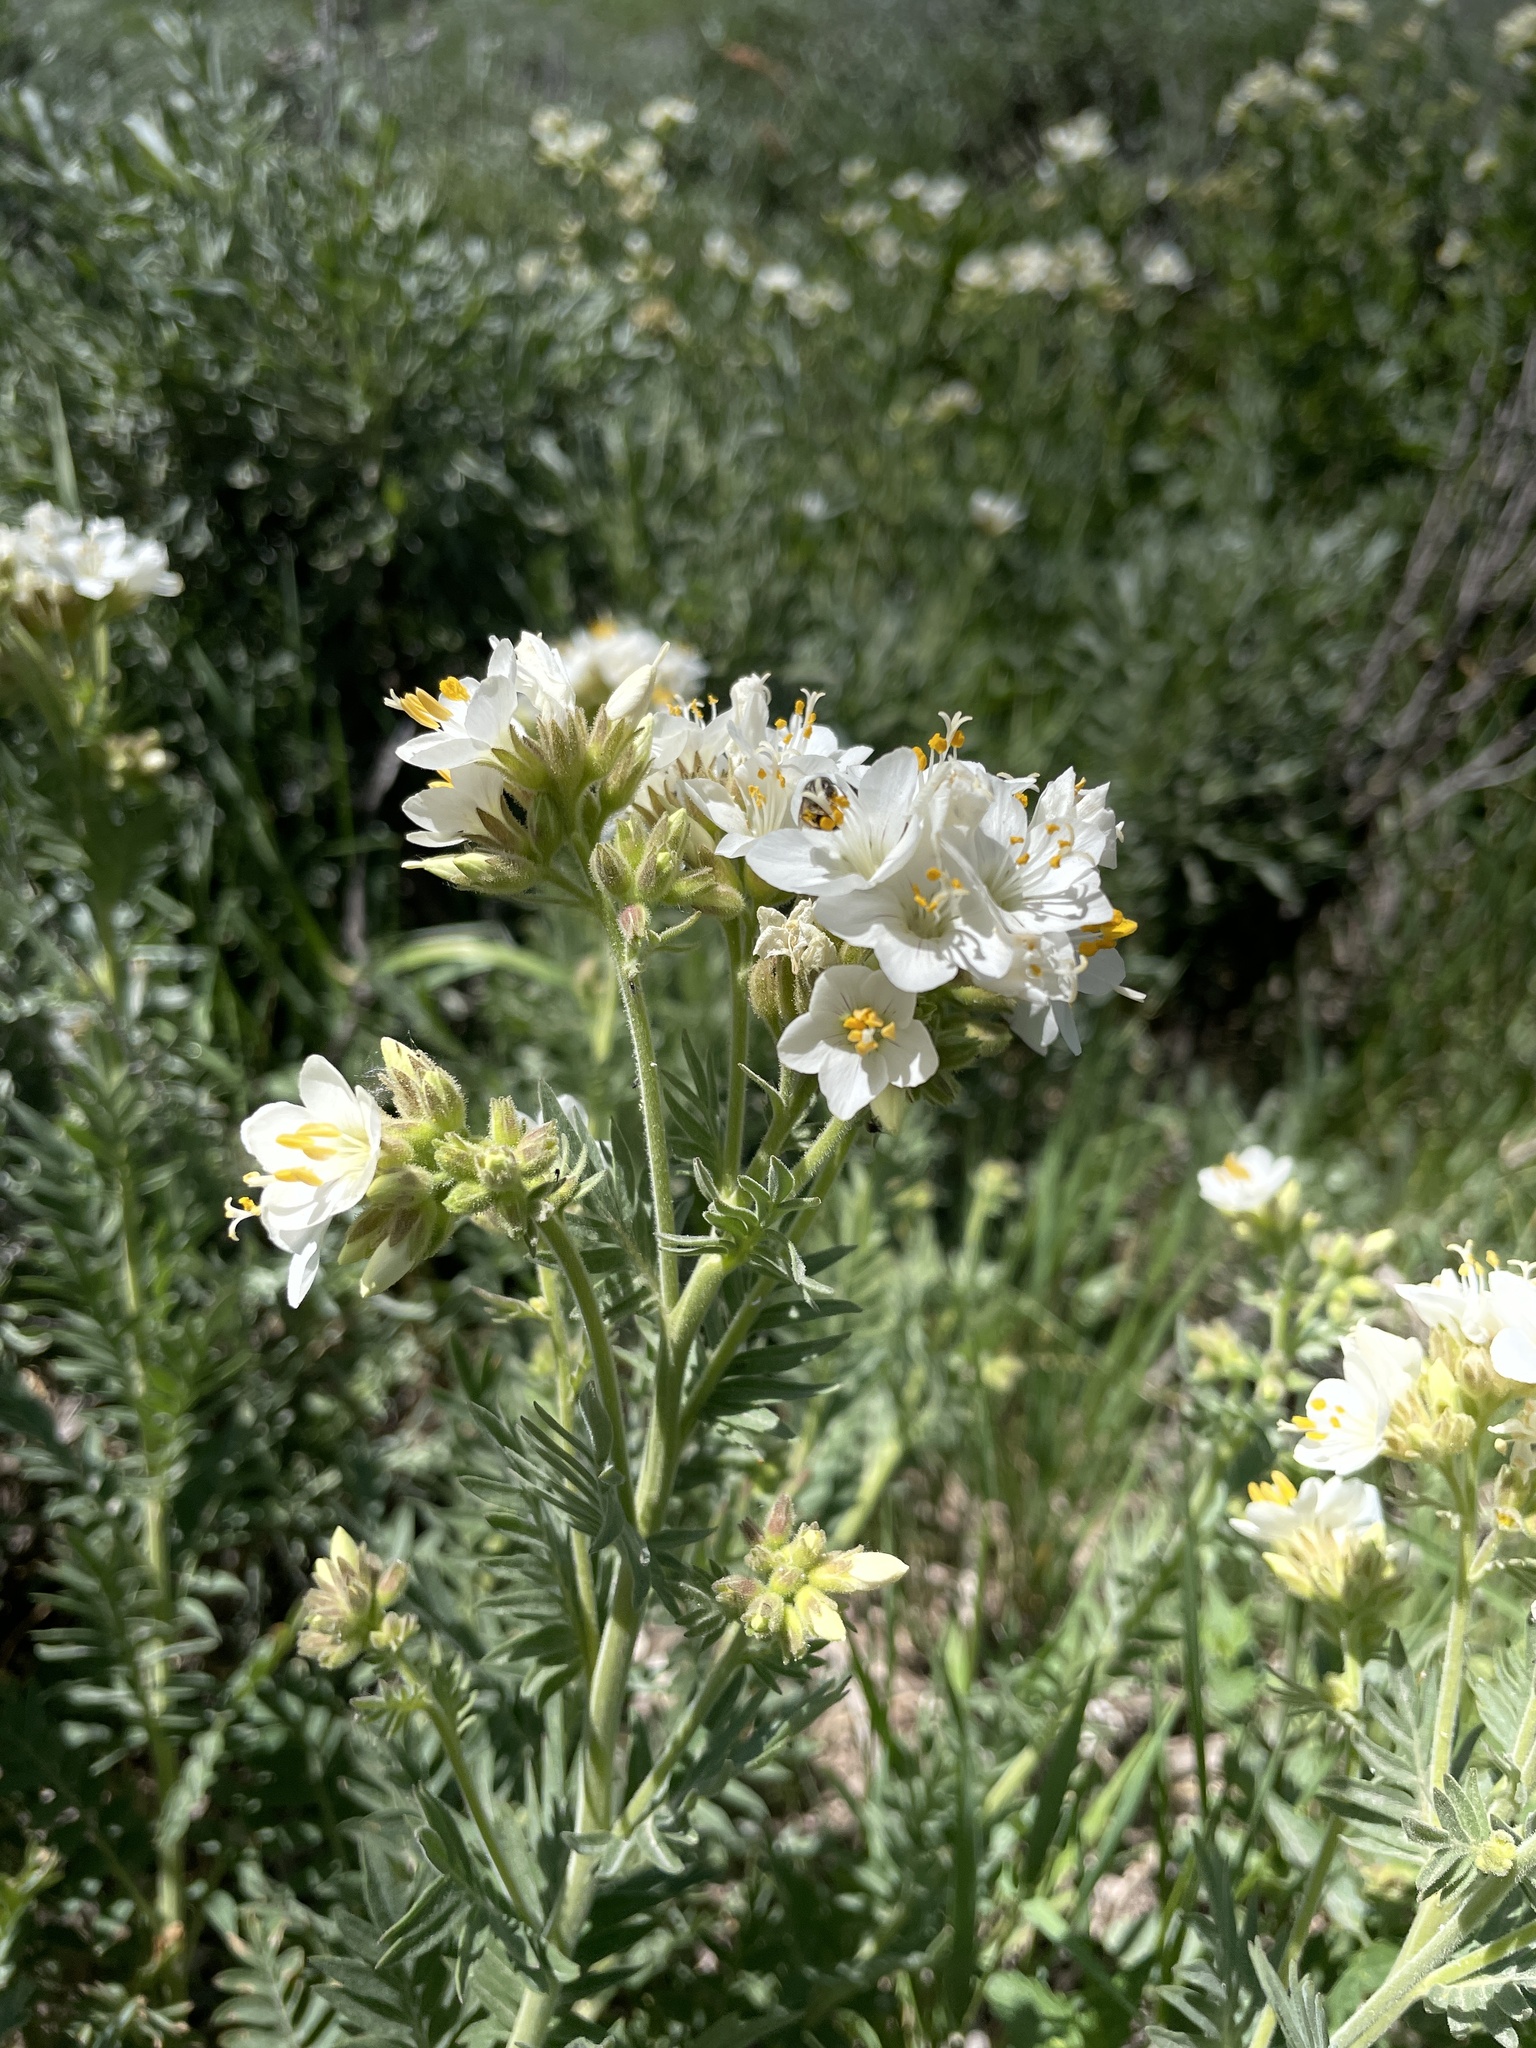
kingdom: Plantae
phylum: Tracheophyta
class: Magnoliopsida
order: Ericales
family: Polemoniaceae
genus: Polemonium
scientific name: Polemonium foliosissimum
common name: Leafy jacob's-ladder
